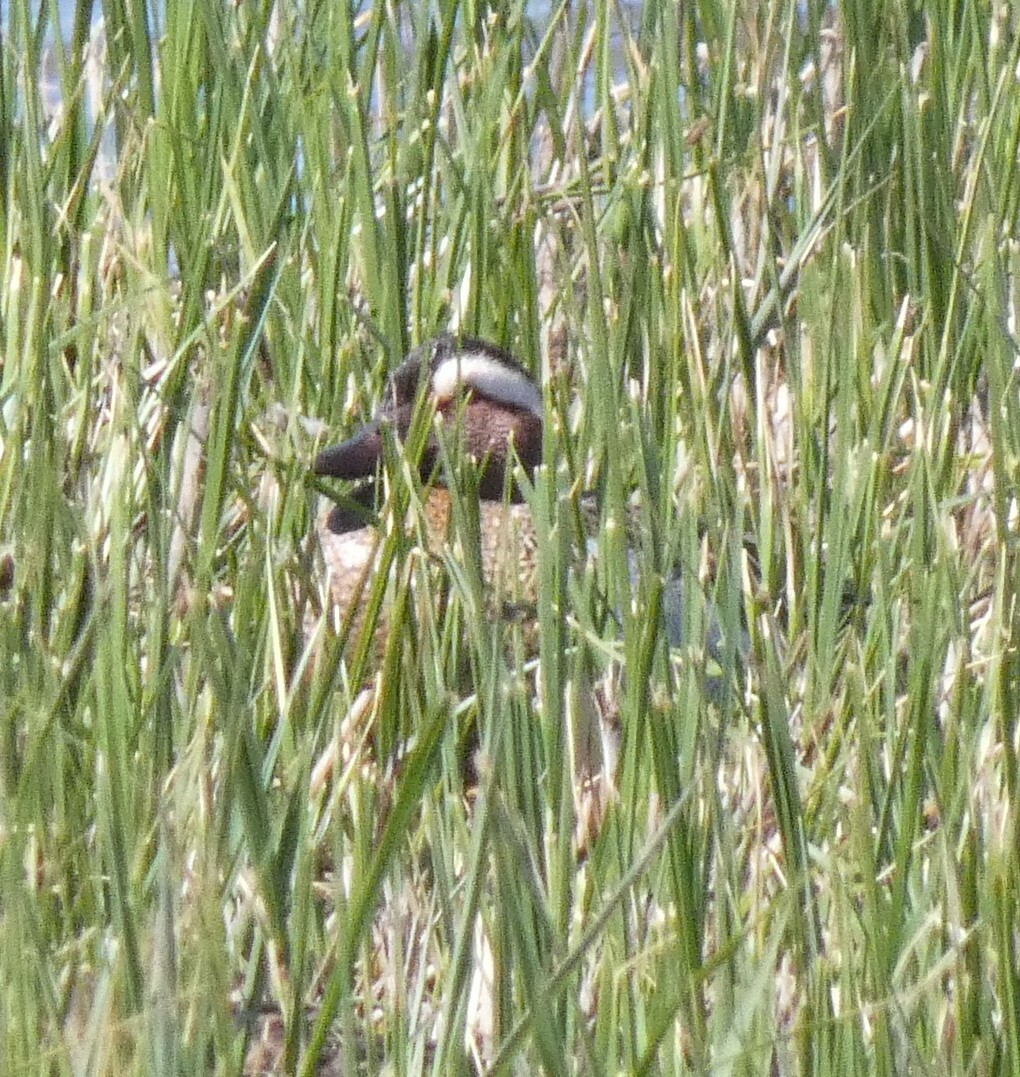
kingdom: Animalia
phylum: Chordata
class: Aves
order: Anseriformes
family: Anatidae
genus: Spatula
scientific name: Spatula querquedula
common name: Garganey
